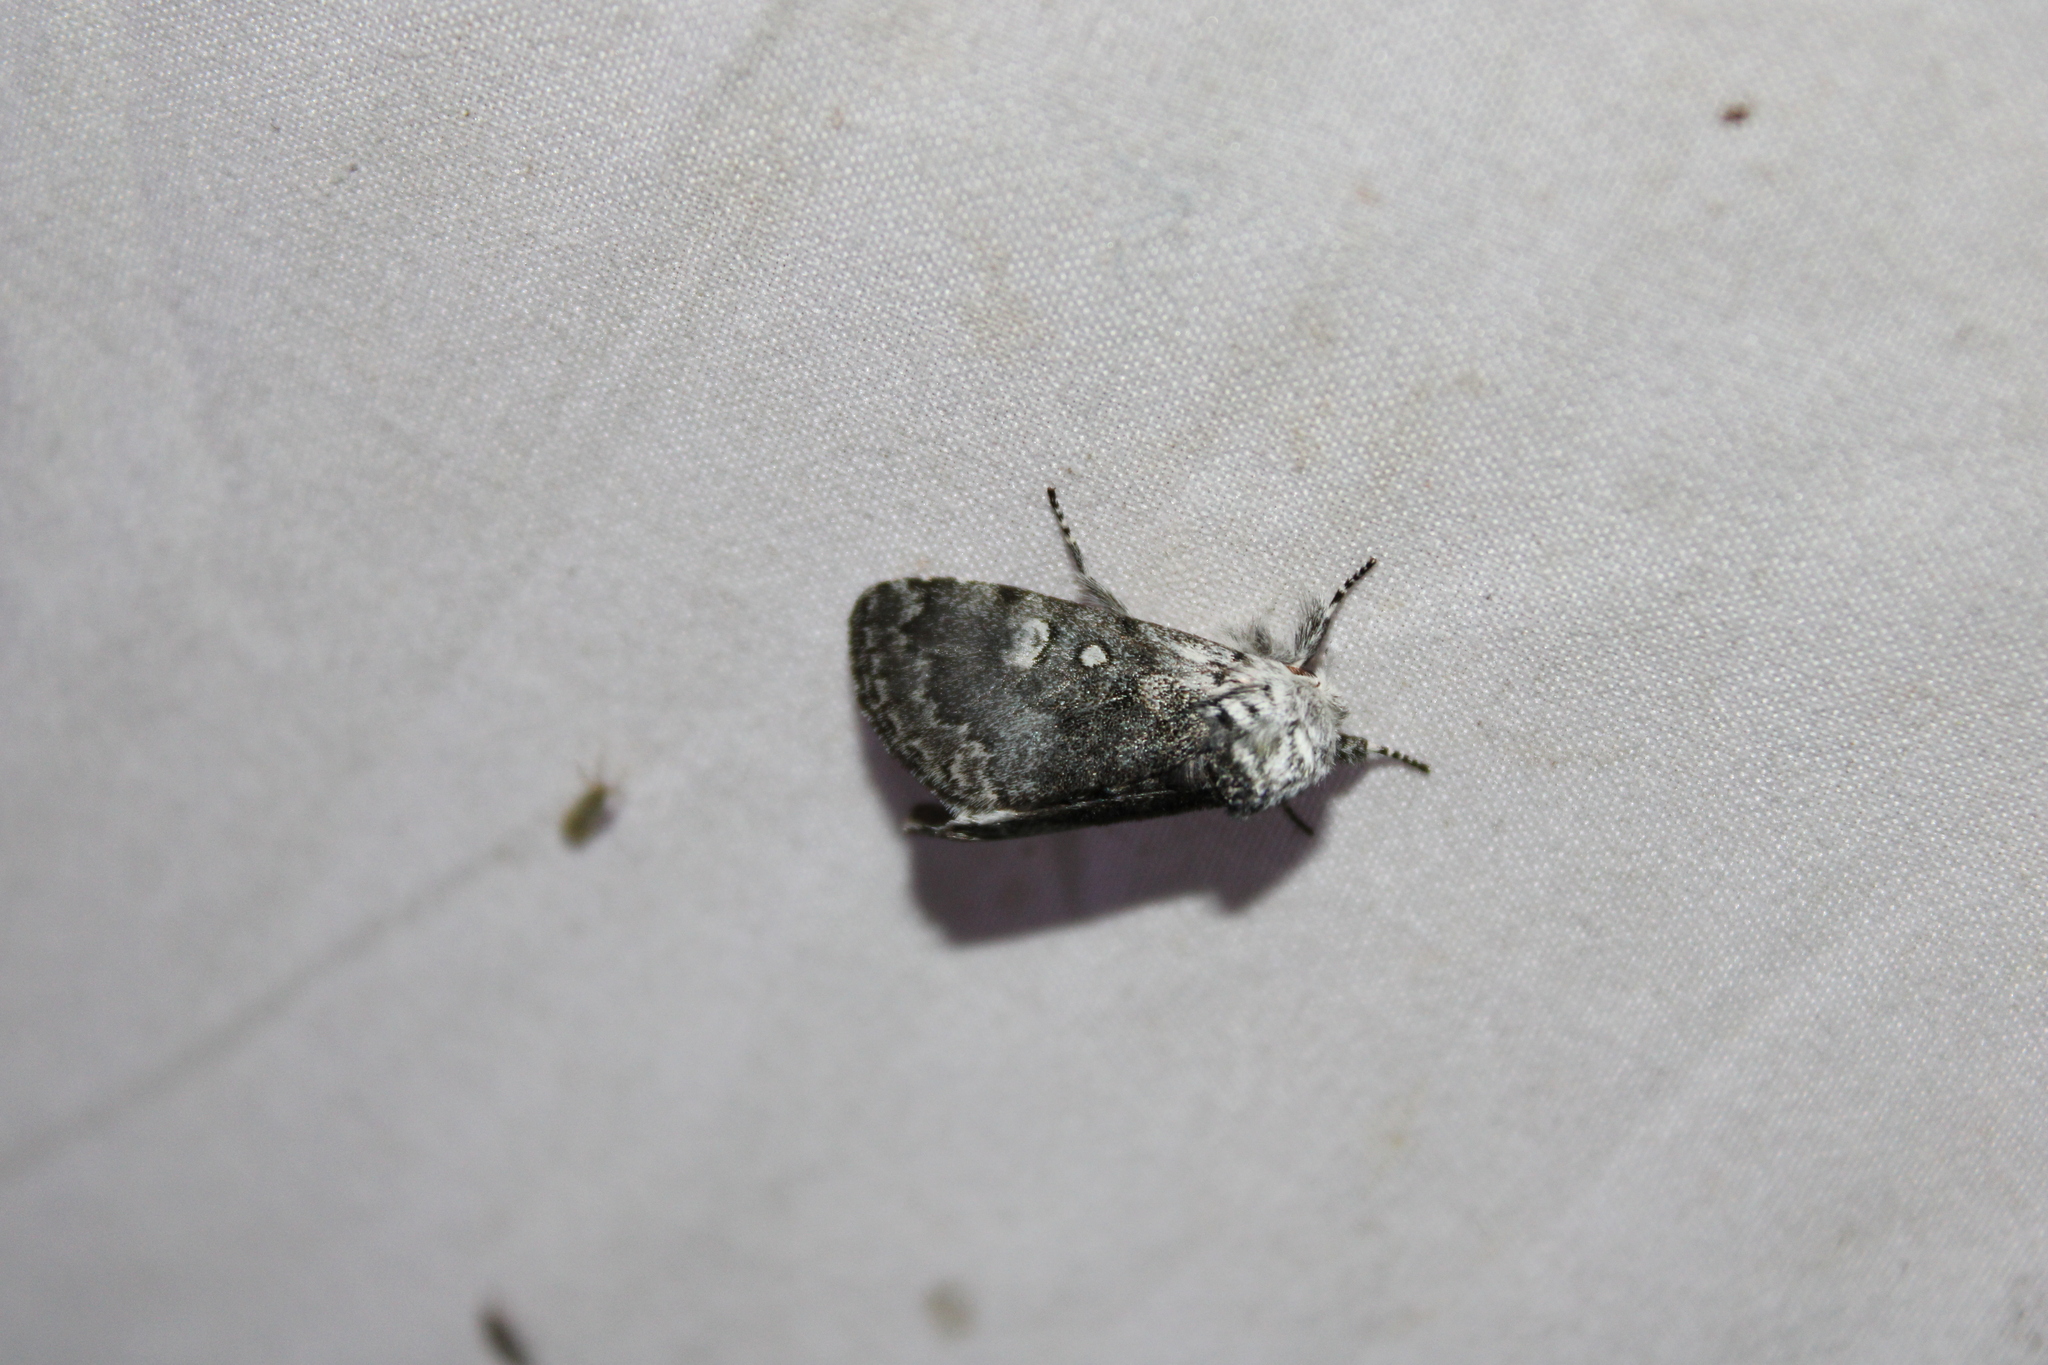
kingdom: Animalia
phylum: Arthropoda
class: Insecta
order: Lepidoptera
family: Noctuidae
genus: Colocasia
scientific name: Colocasia propinquilinea
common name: Close-banded demas
